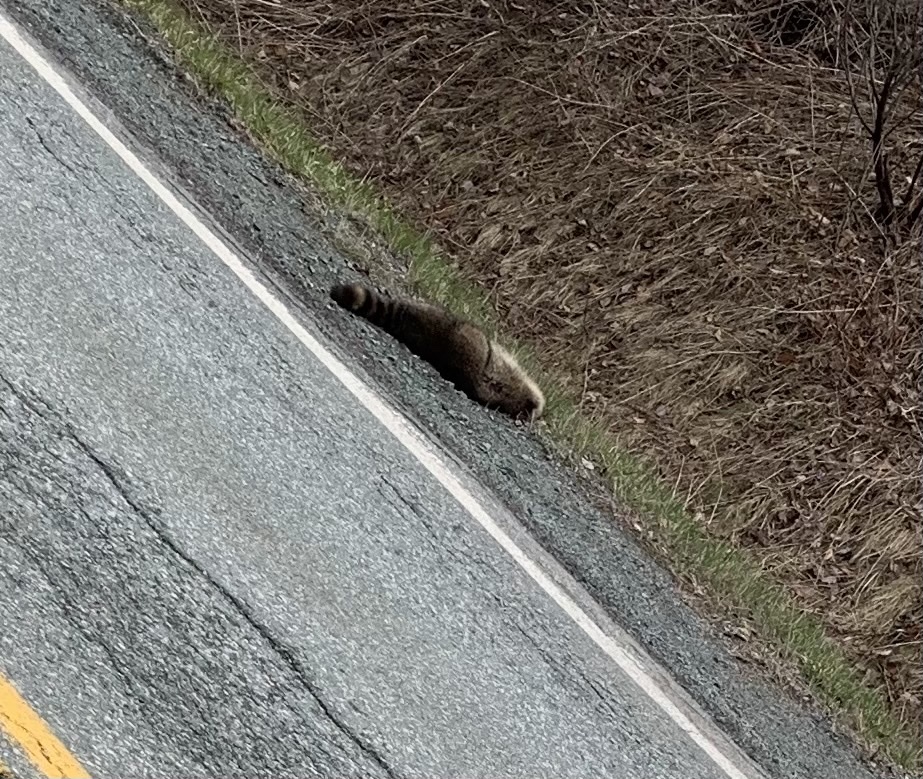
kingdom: Animalia
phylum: Chordata
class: Mammalia
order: Carnivora
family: Procyonidae
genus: Procyon
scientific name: Procyon lotor
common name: Raccoon
